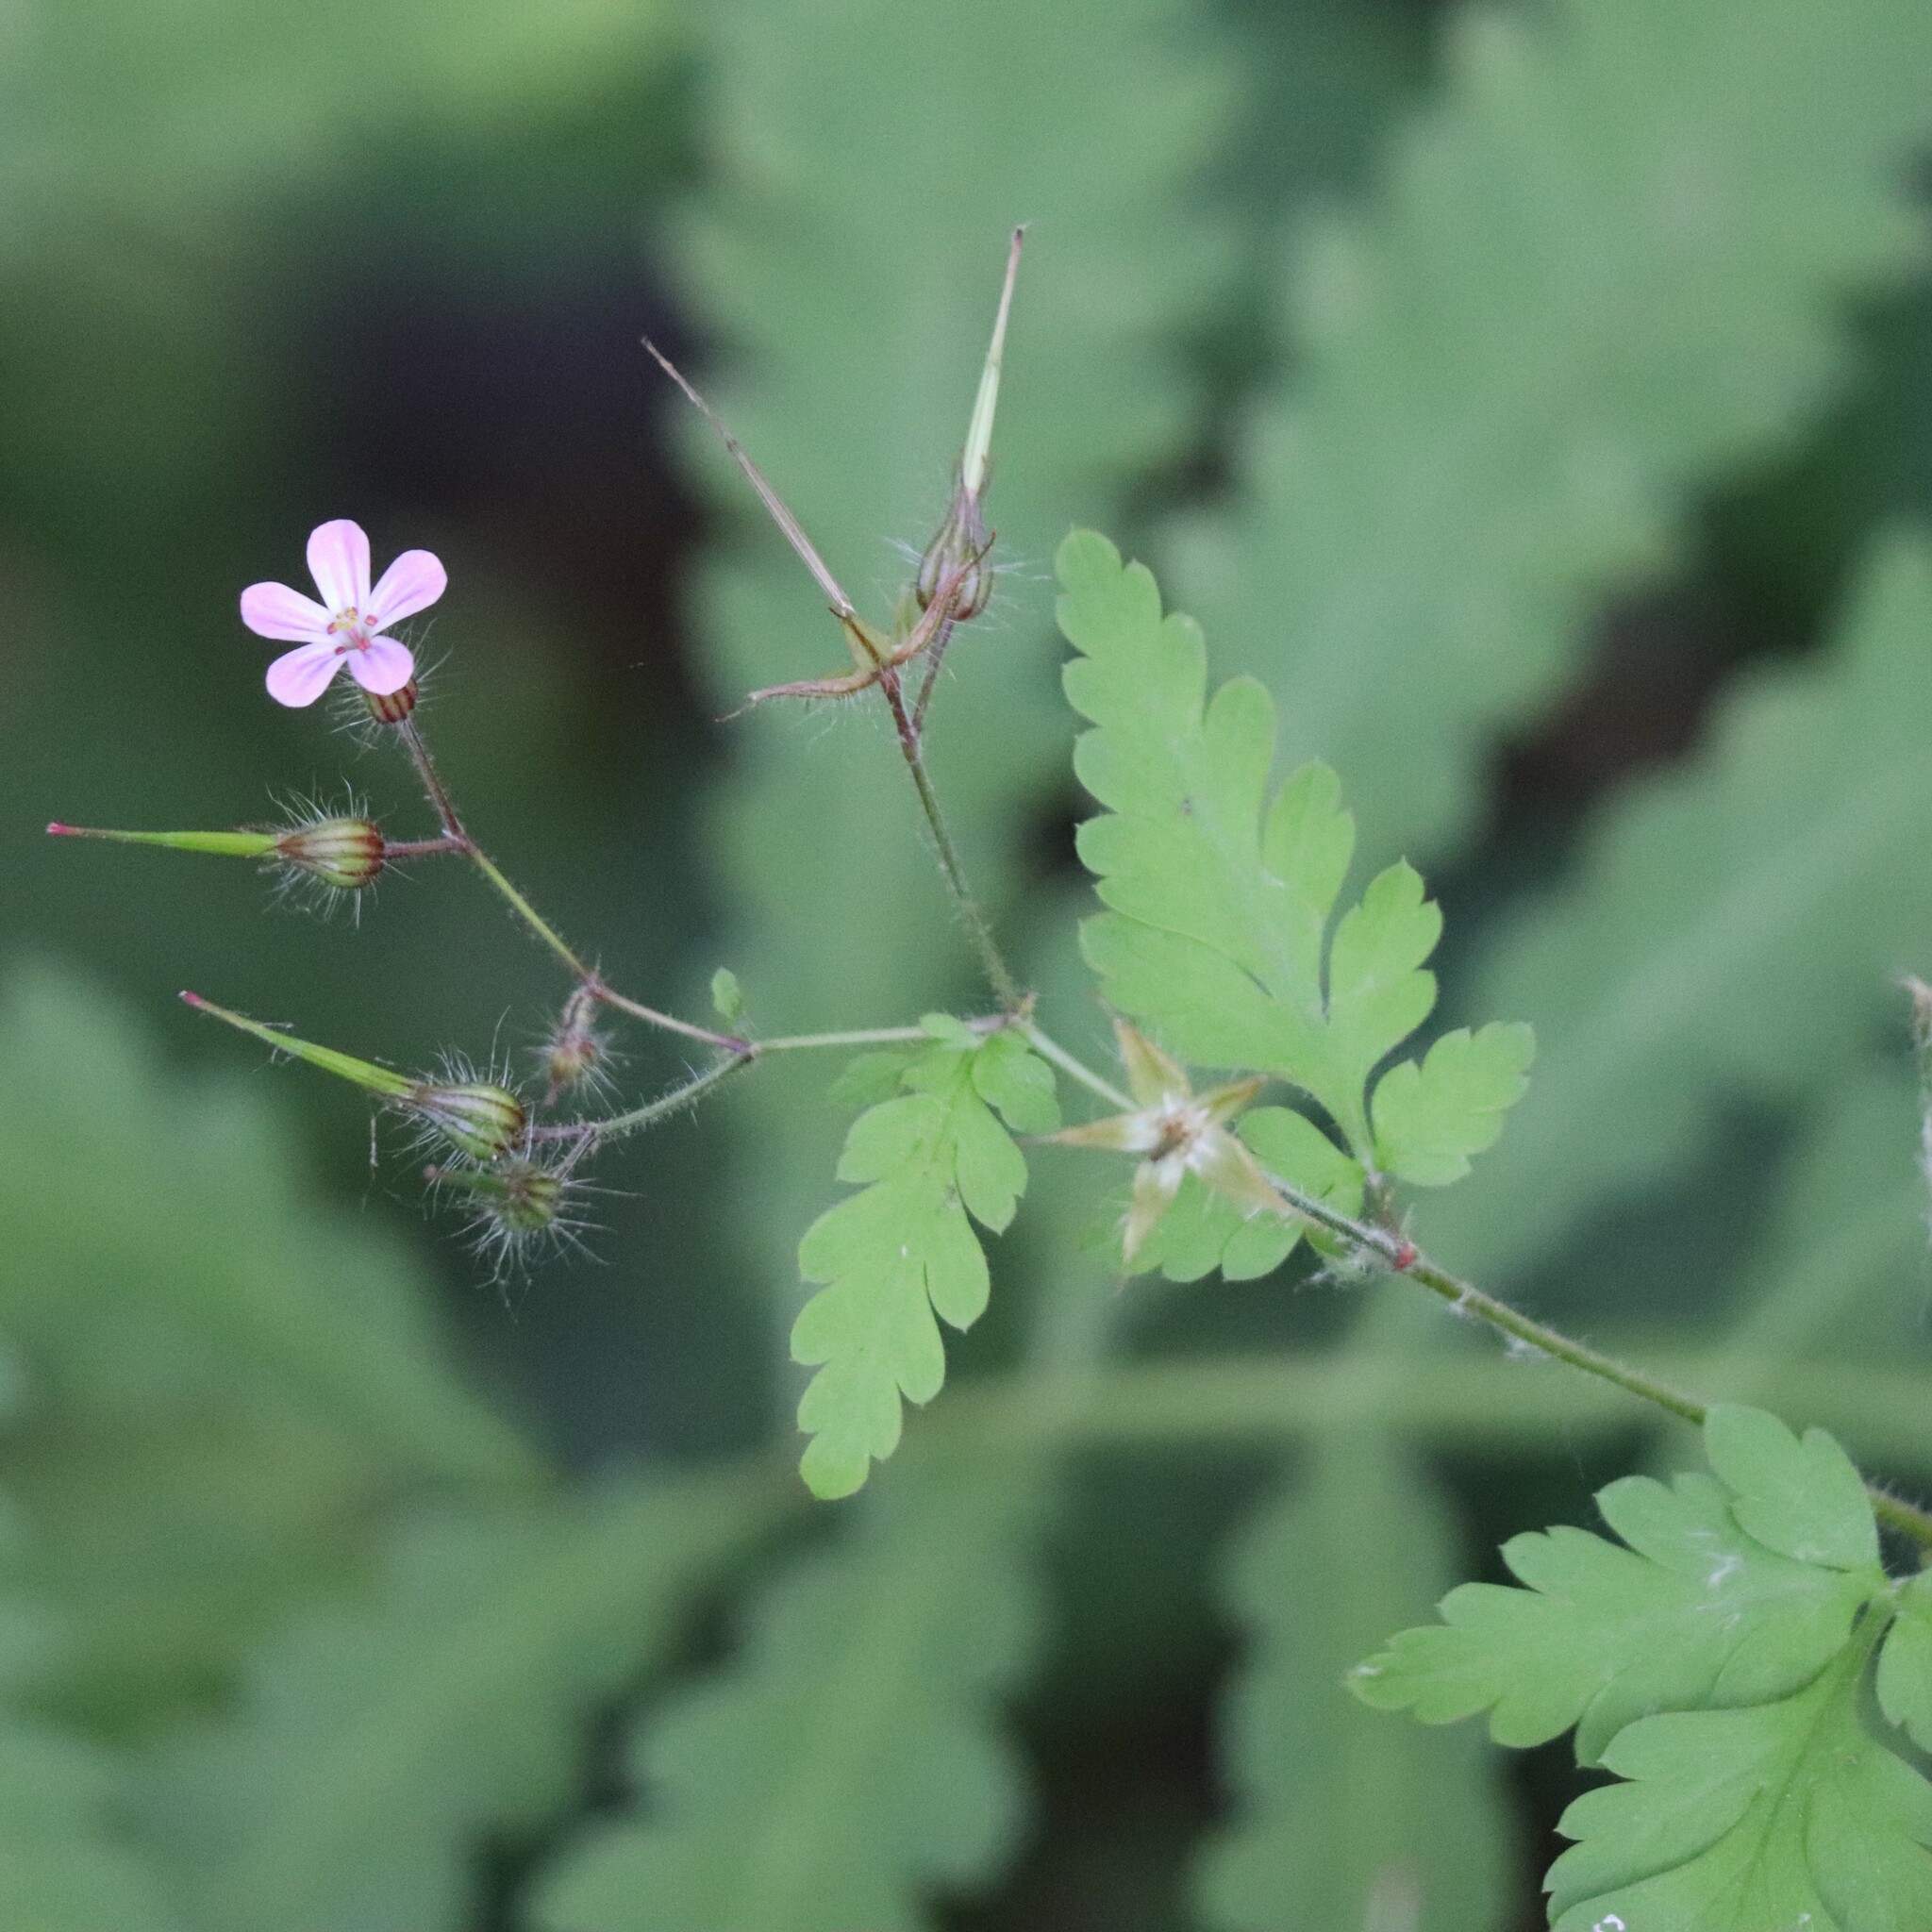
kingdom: Plantae
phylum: Tracheophyta
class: Magnoliopsida
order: Geraniales
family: Geraniaceae
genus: Geranium
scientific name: Geranium robertianum
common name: Herb-robert
